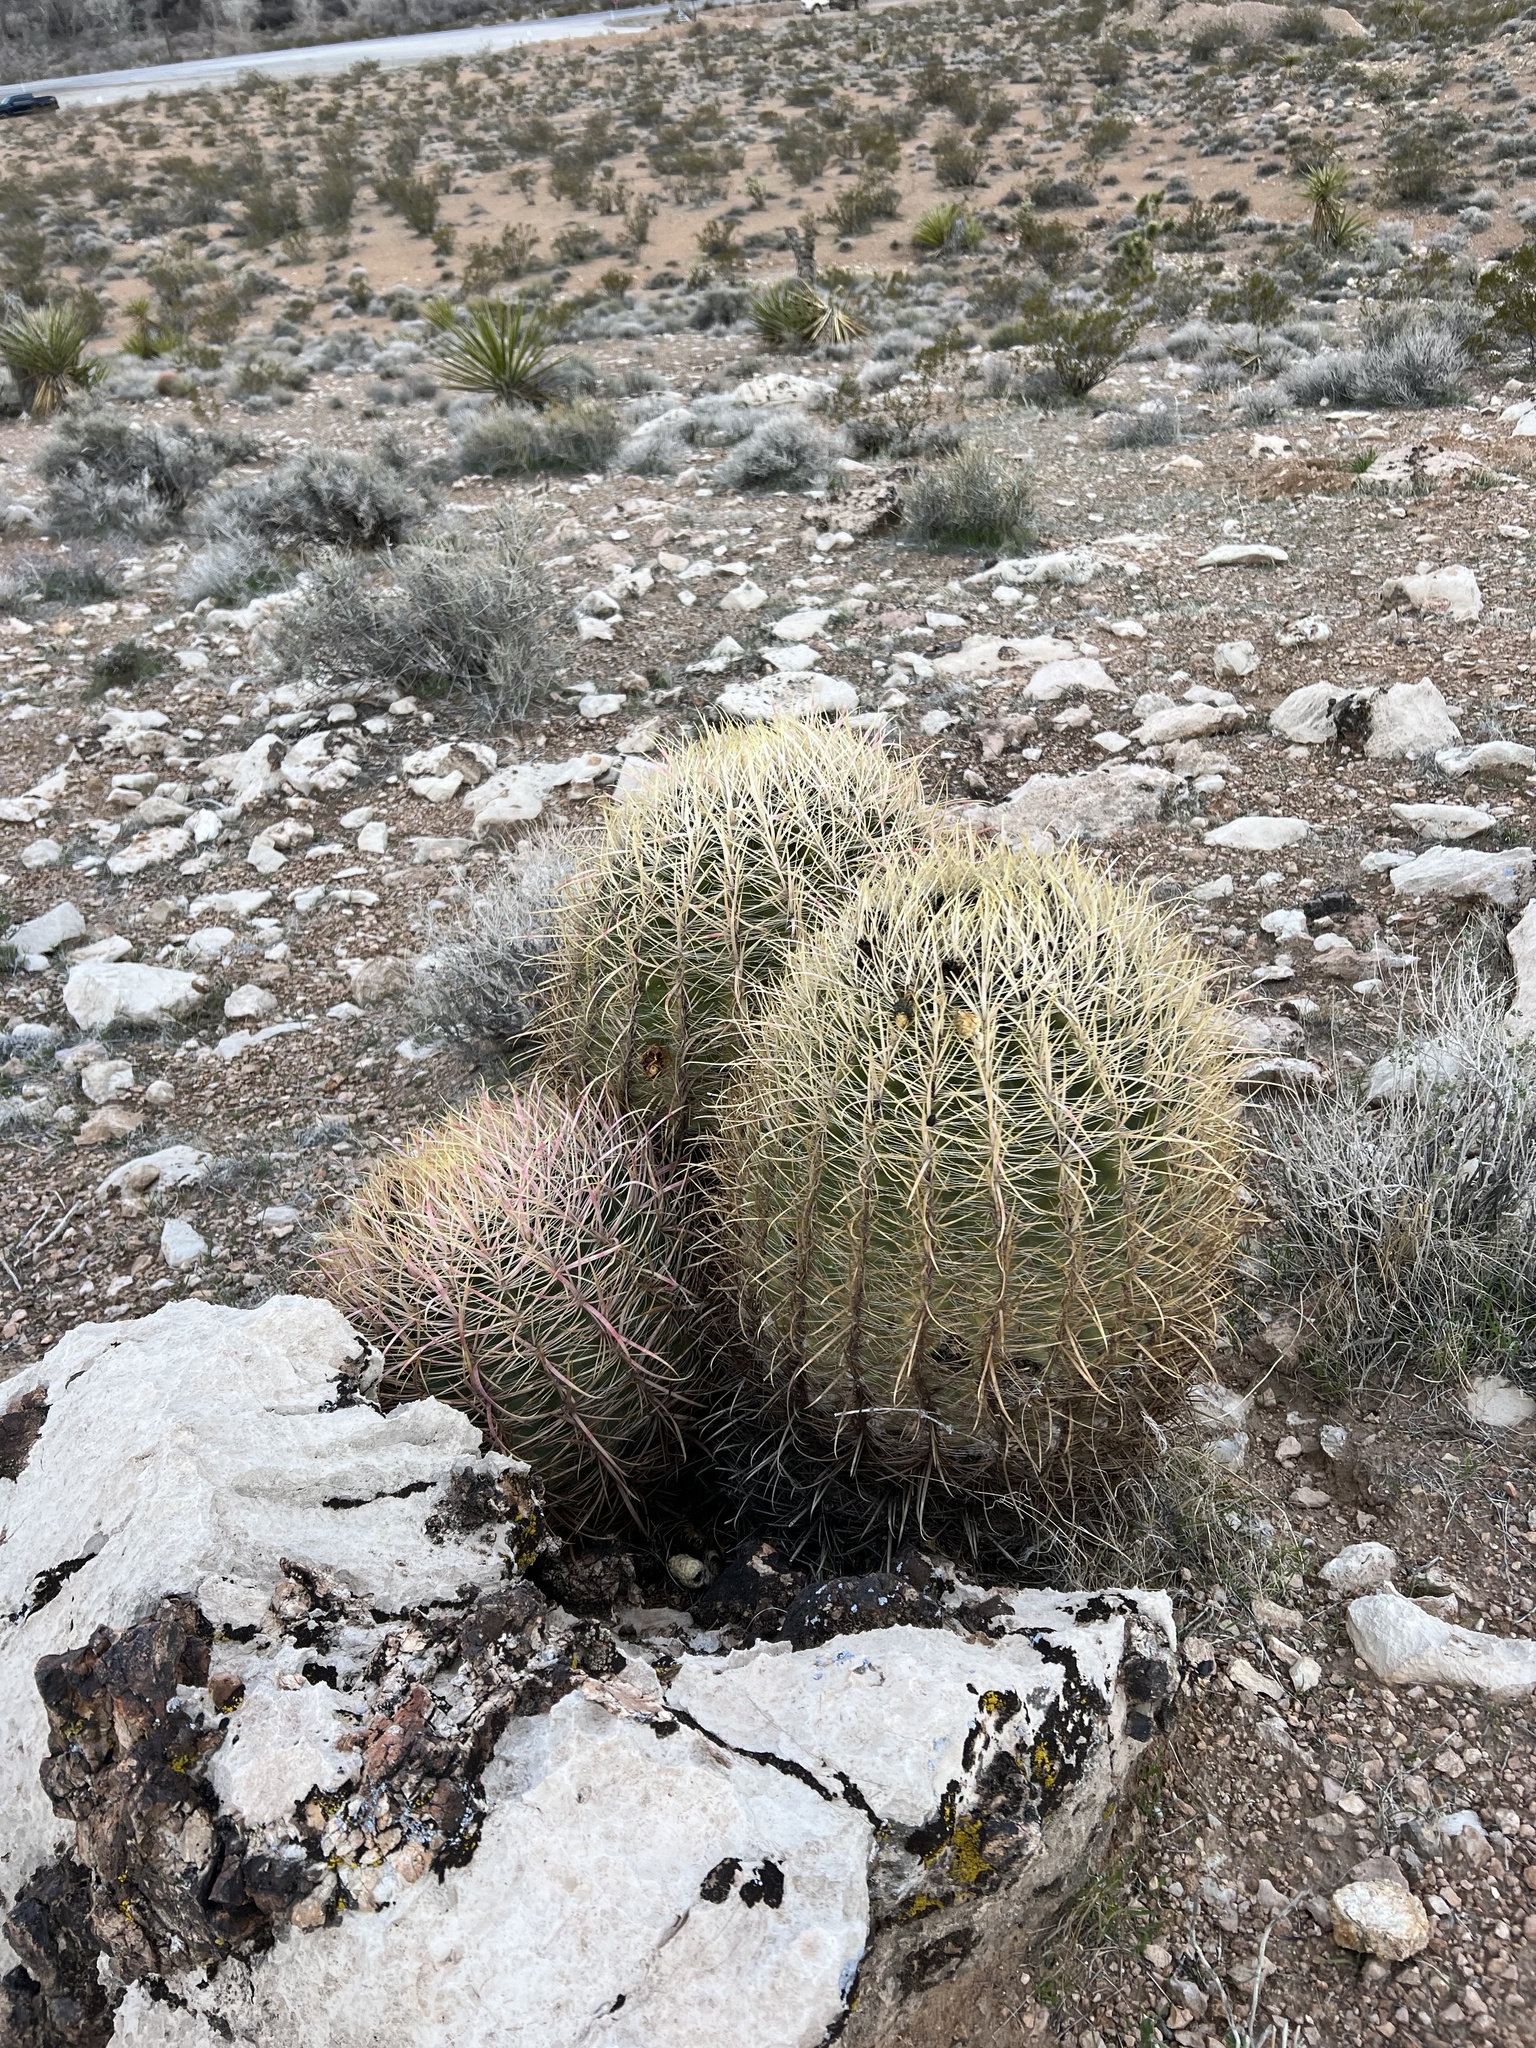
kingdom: Plantae
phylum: Tracheophyta
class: Magnoliopsida
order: Caryophyllales
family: Cactaceae
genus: Ferocactus
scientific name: Ferocactus cylindraceus
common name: California barrel cactus
